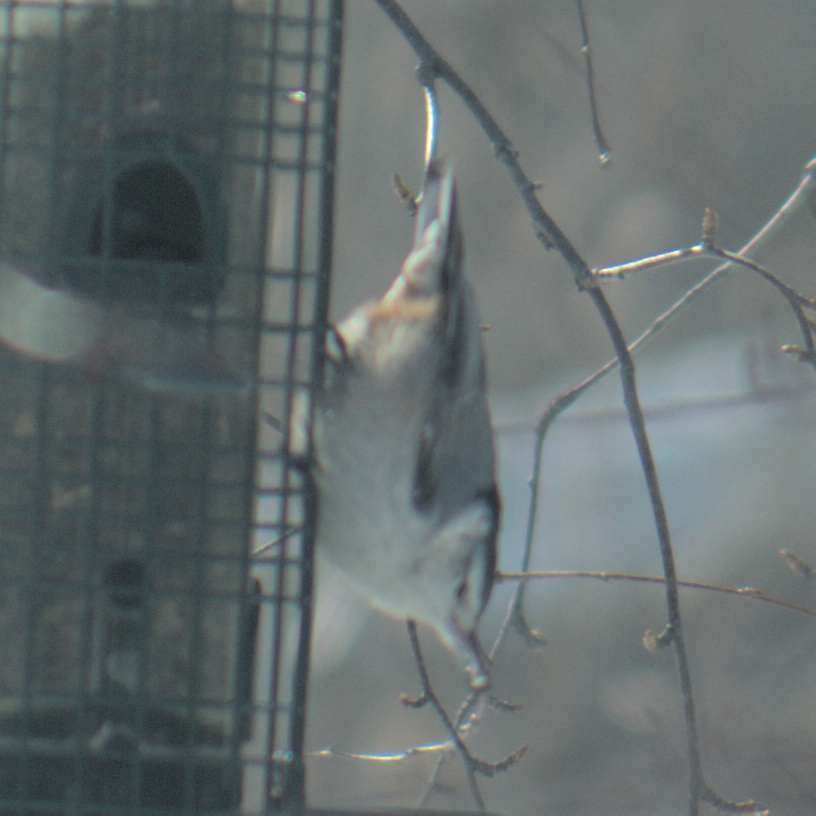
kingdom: Animalia
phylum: Chordata
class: Aves
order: Passeriformes
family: Sittidae
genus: Sitta
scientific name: Sitta carolinensis
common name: White-breasted nuthatch
